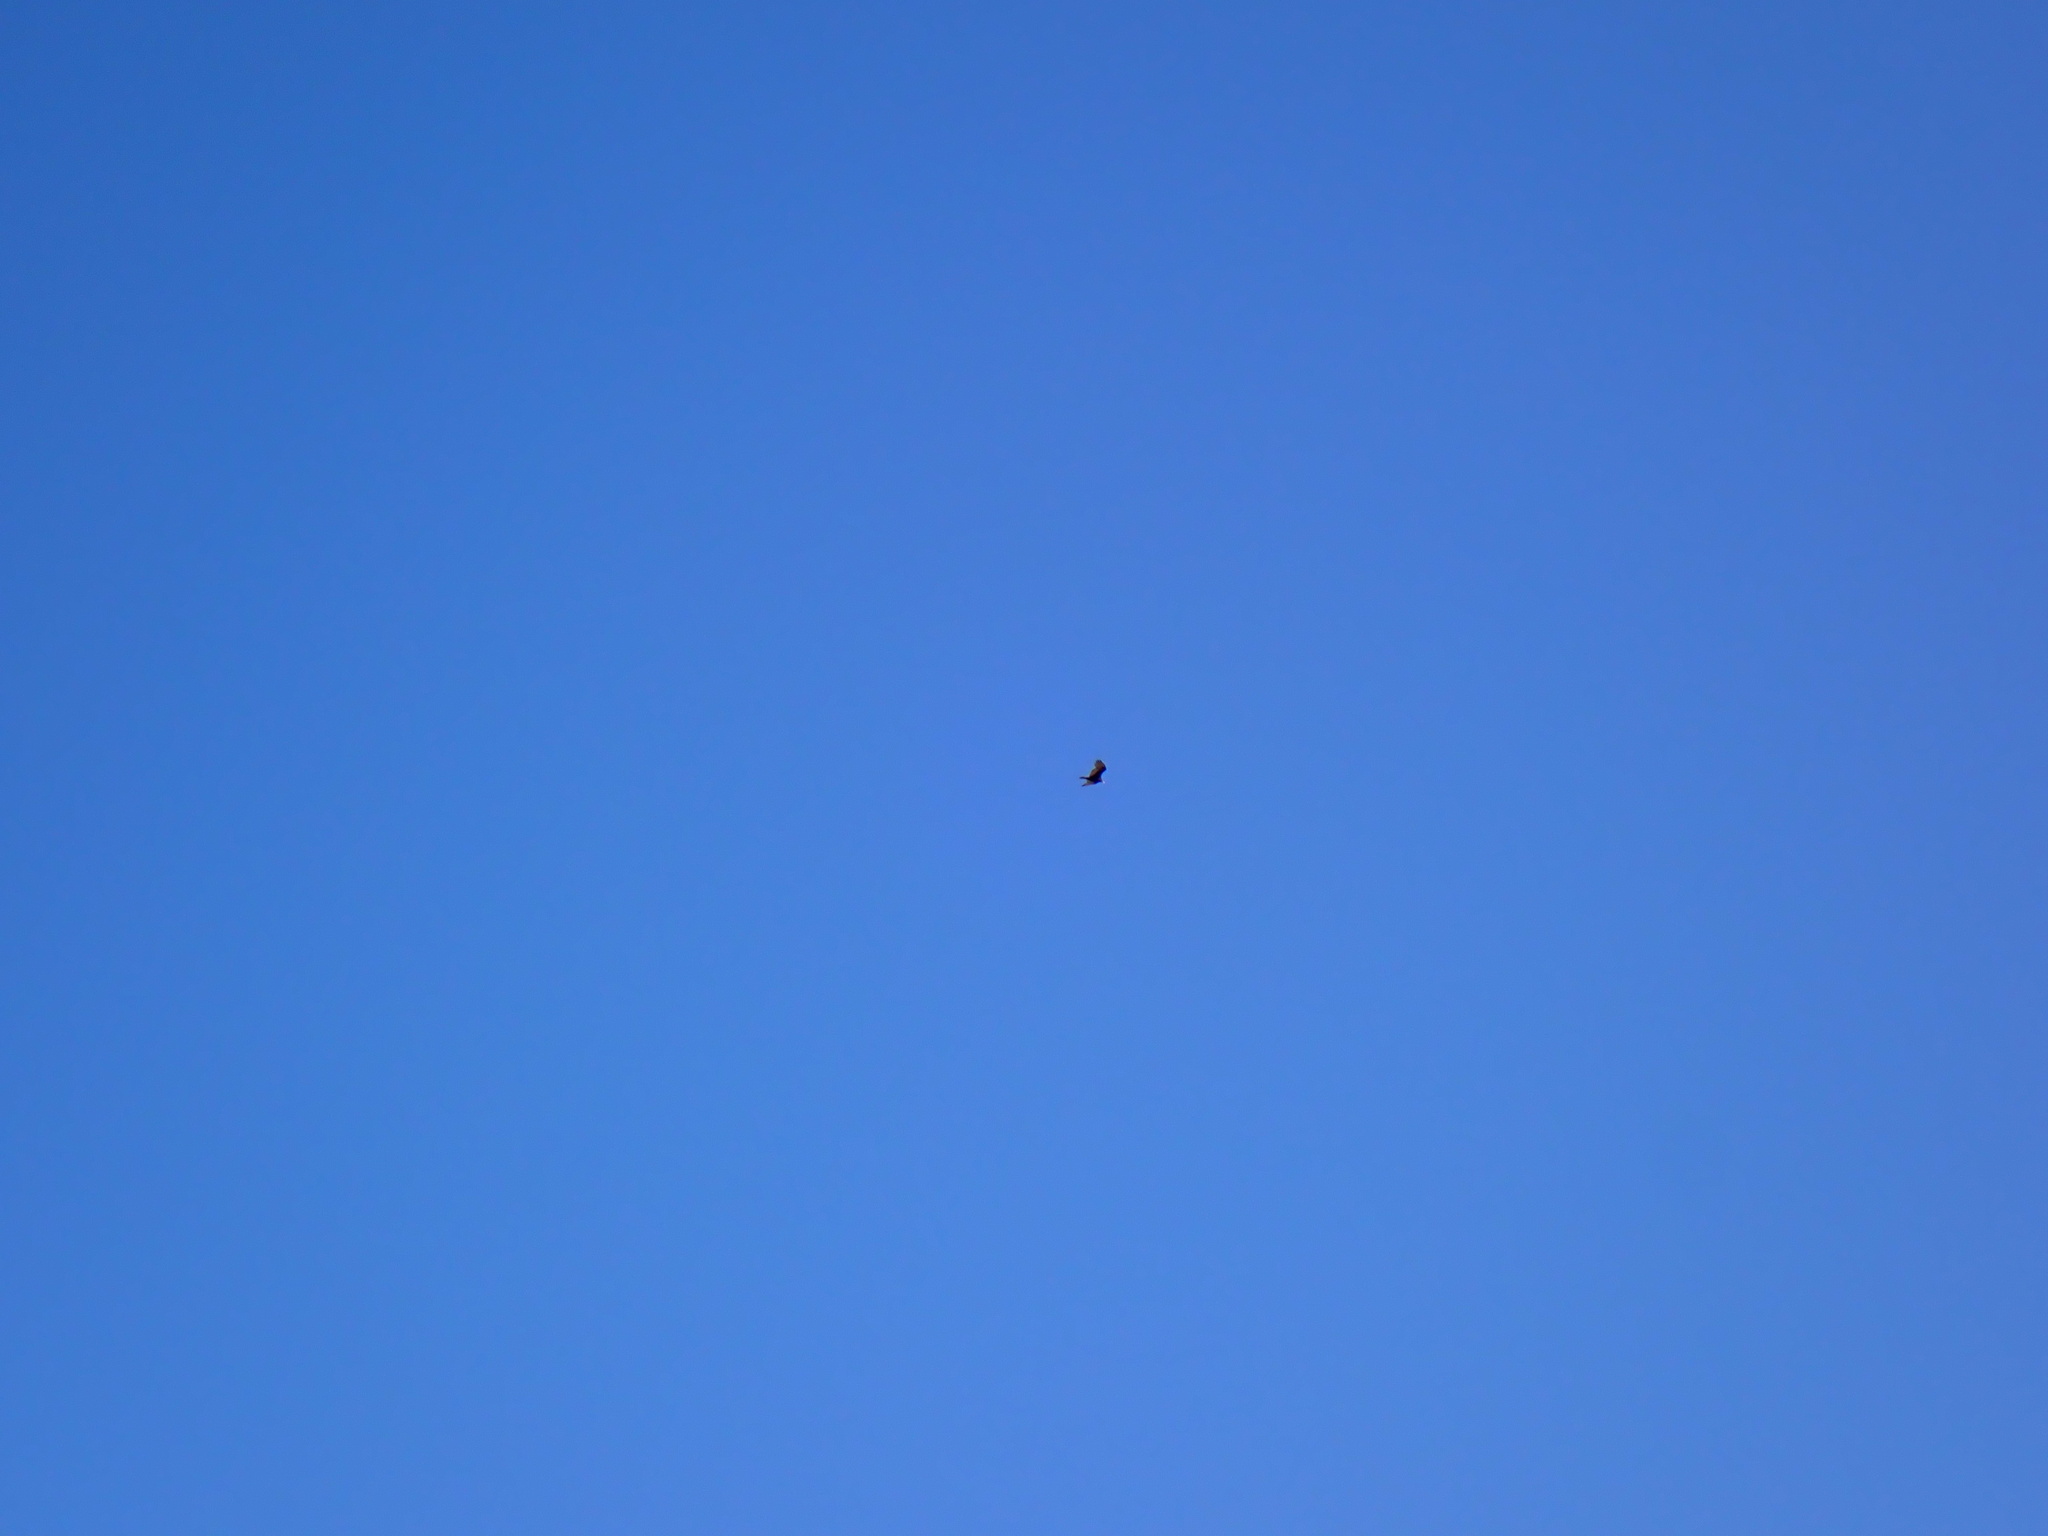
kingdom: Animalia
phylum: Chordata
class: Aves
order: Accipitriformes
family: Cathartidae
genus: Cathartes
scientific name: Cathartes aura
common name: Turkey vulture
